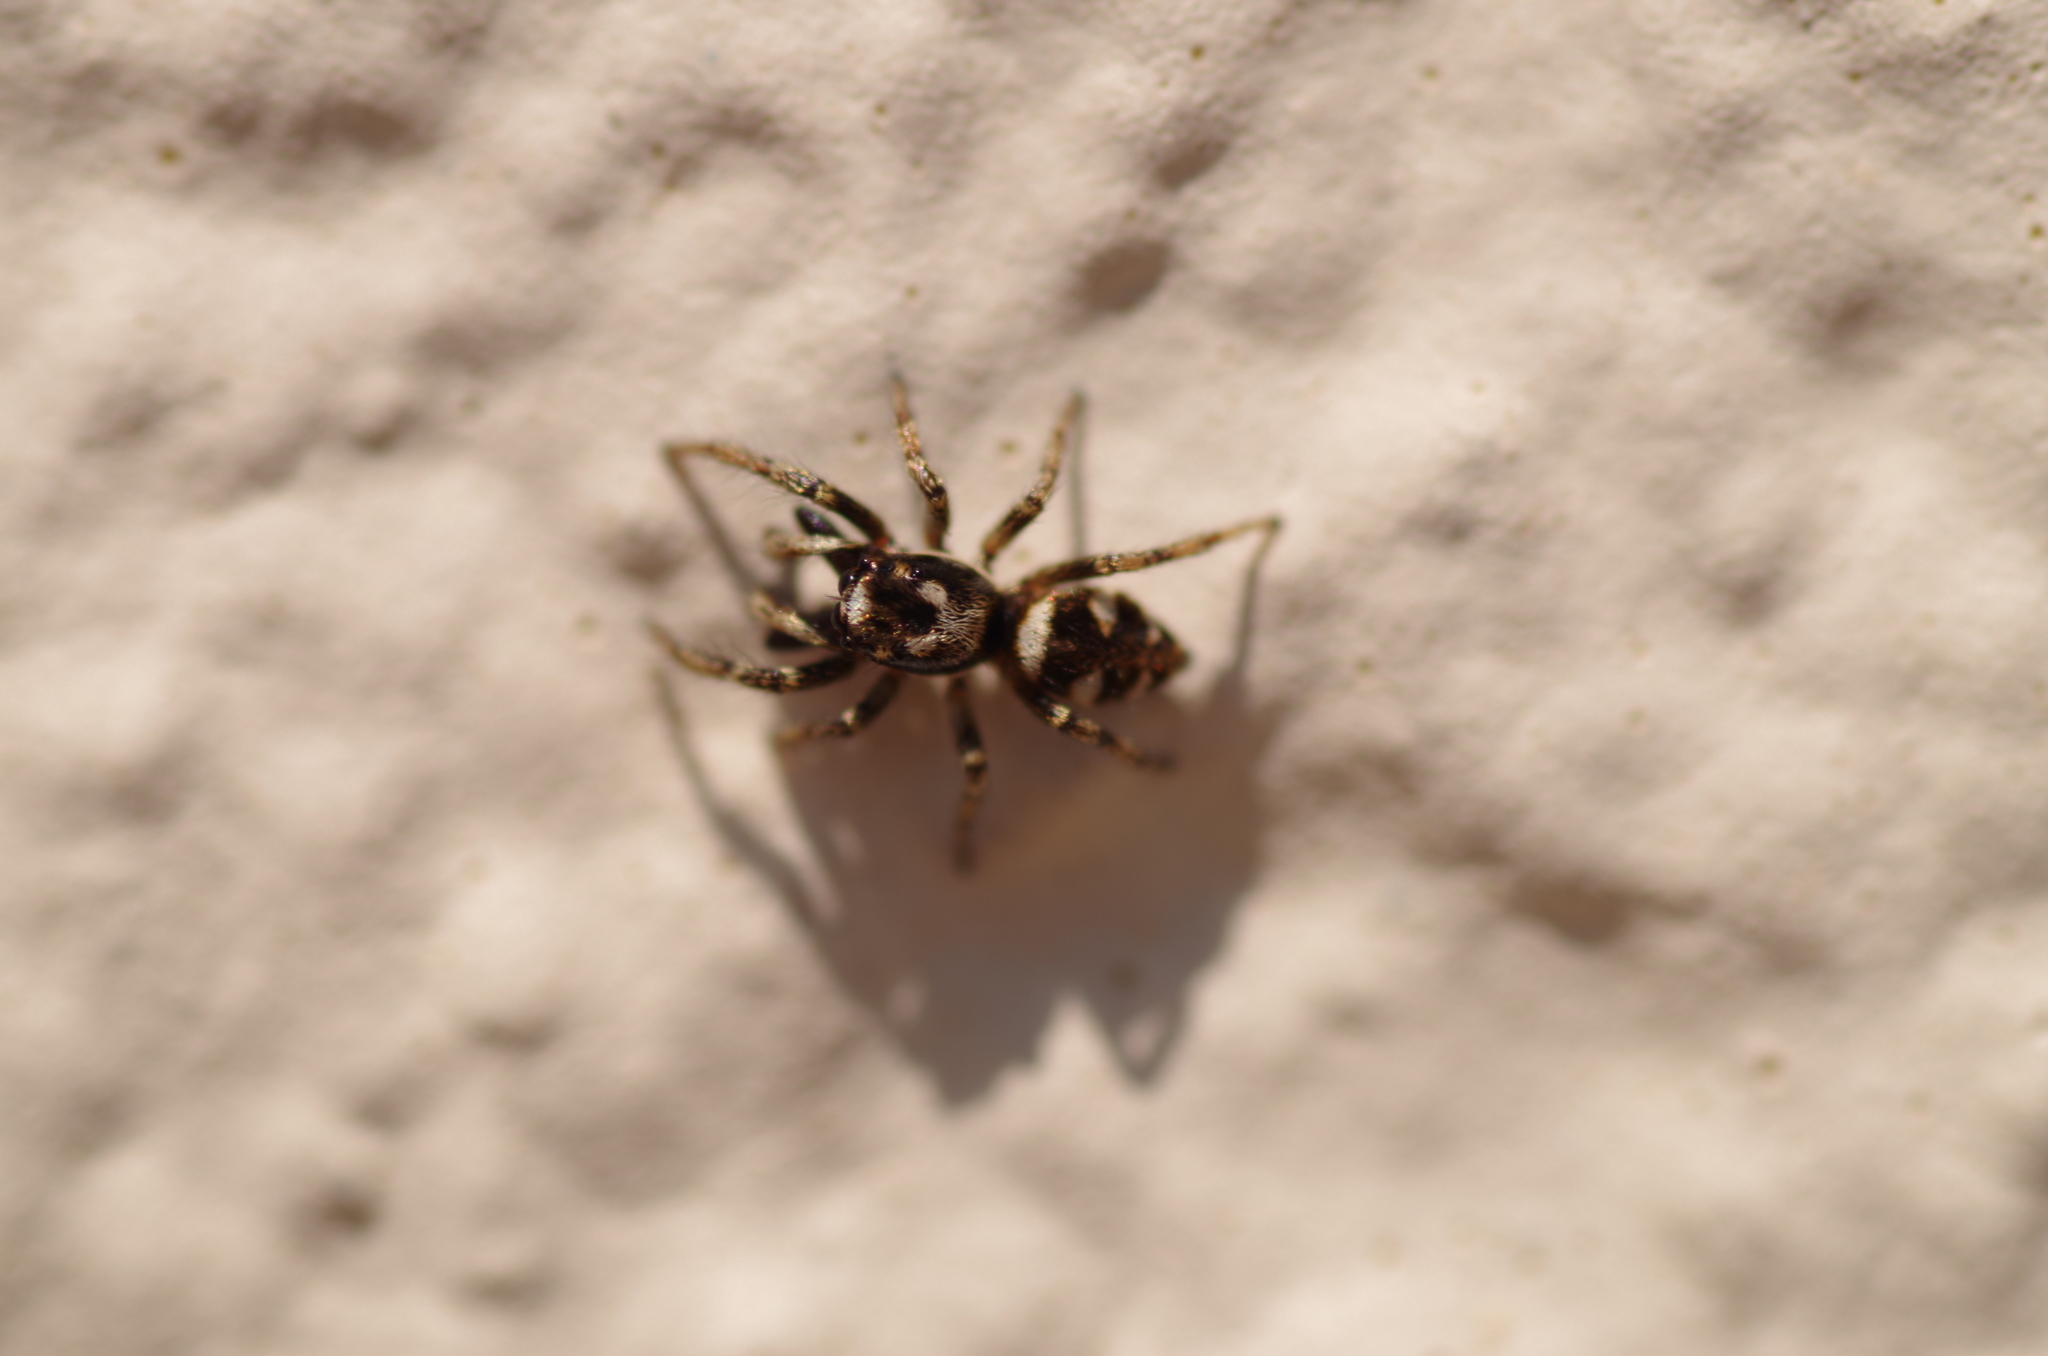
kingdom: Animalia
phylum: Arthropoda
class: Arachnida
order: Araneae
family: Salticidae
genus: Salticus
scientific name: Salticus scenicus
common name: Zebra jumper
